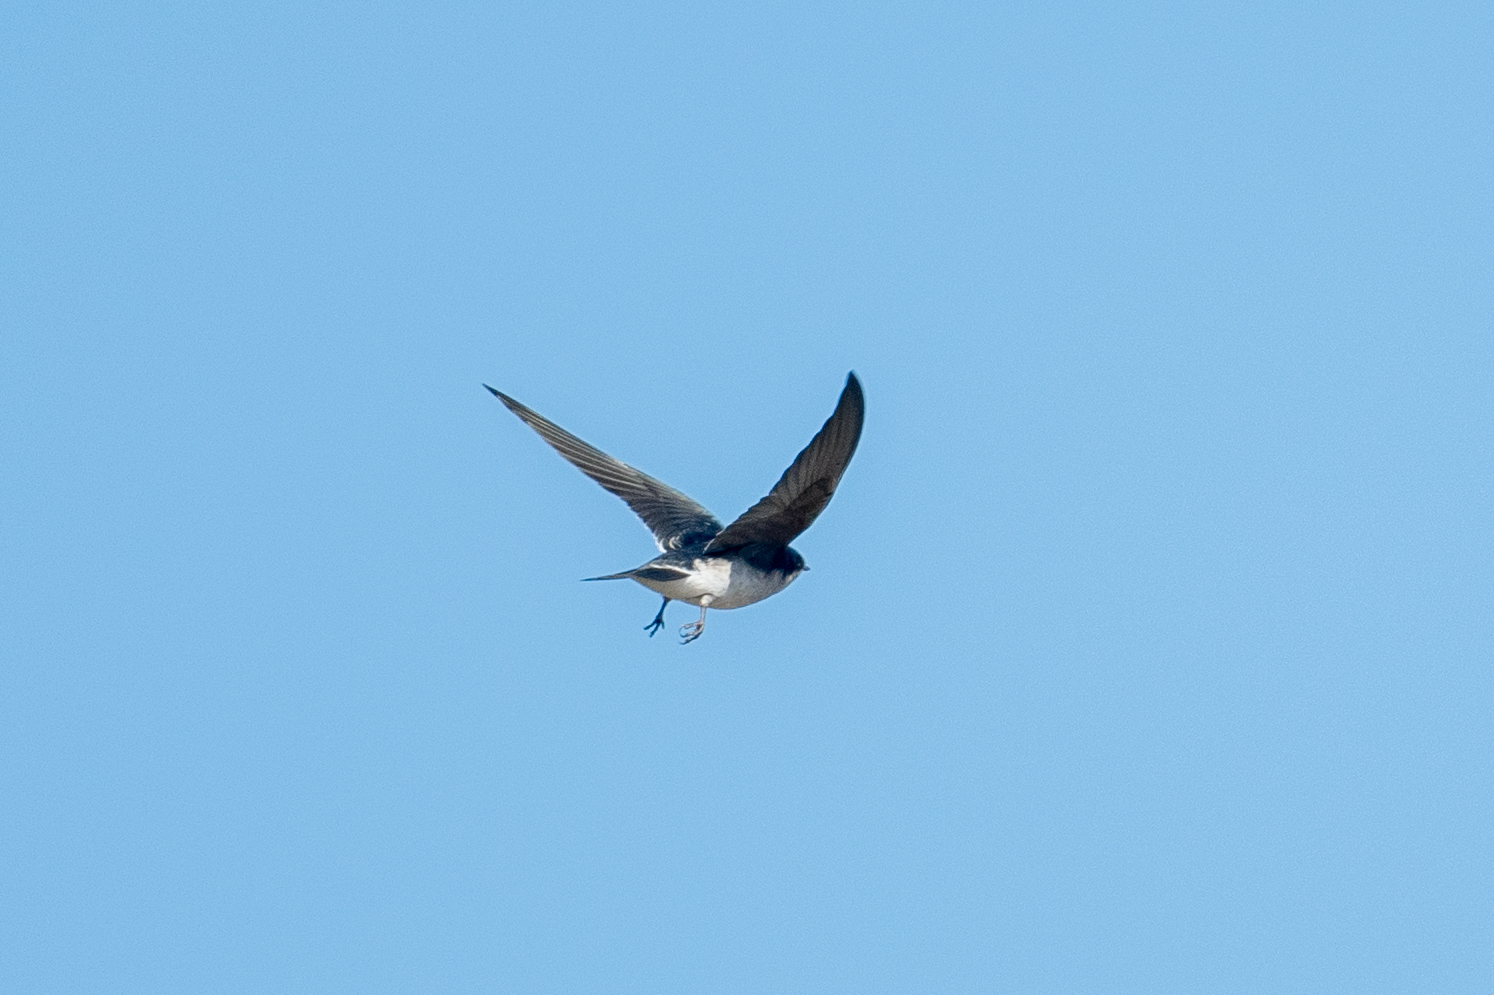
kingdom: Animalia
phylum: Chordata
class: Aves
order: Passeriformes
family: Hirundinidae
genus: Tachycineta
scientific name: Tachycineta bicolor
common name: Tree swallow
